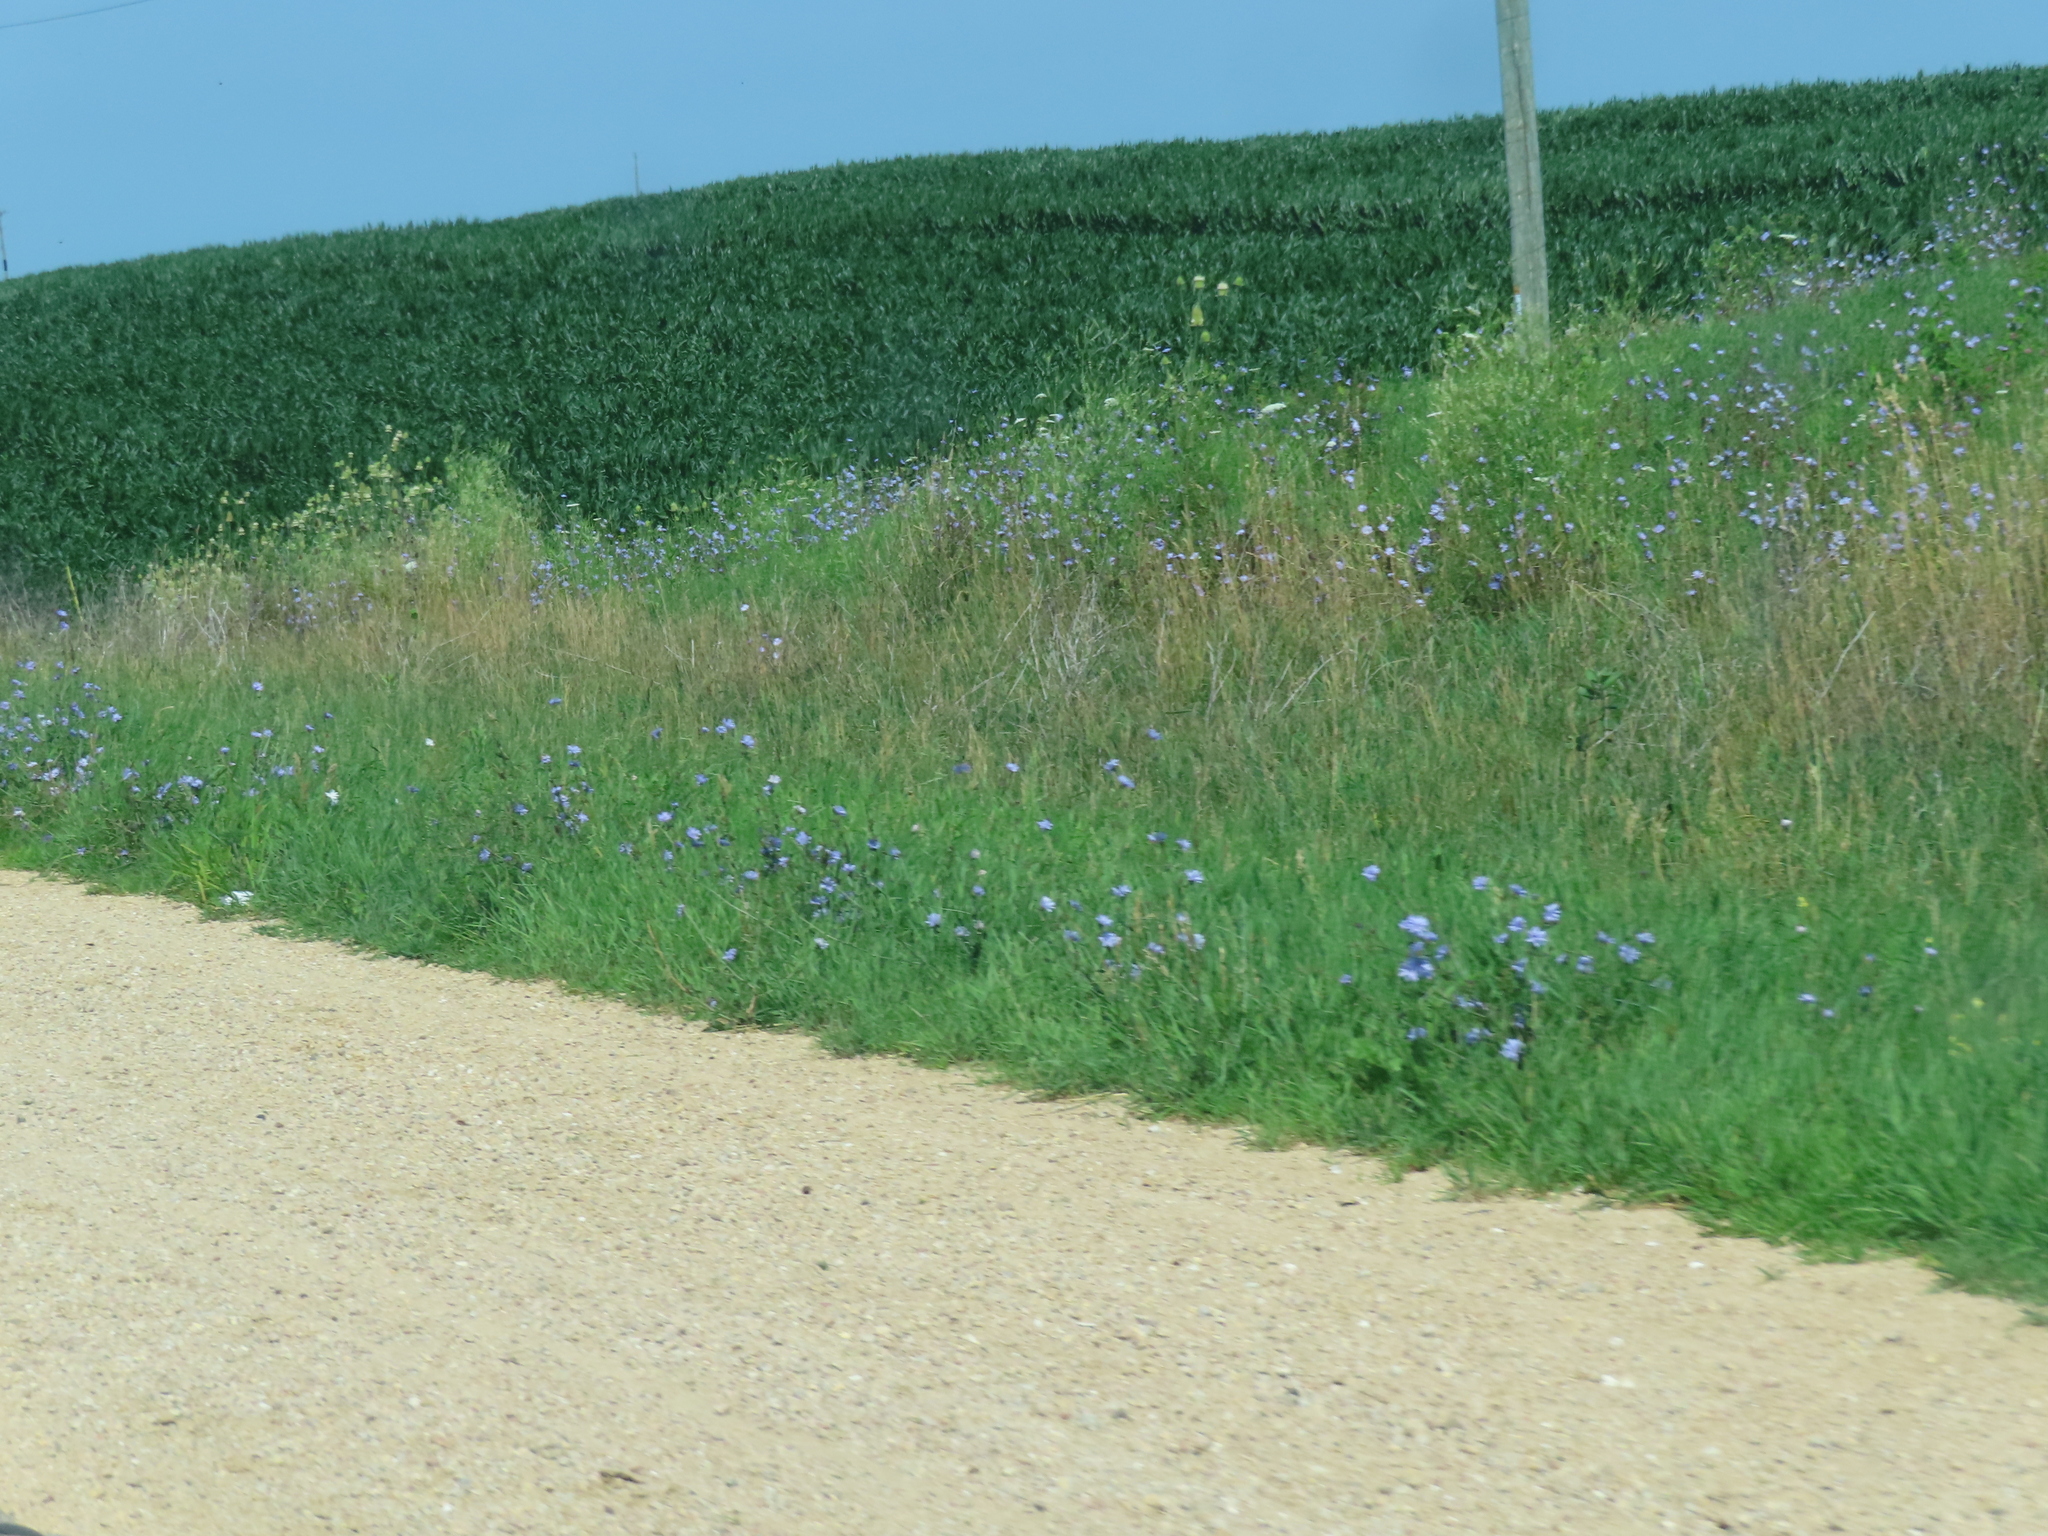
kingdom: Plantae
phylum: Tracheophyta
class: Magnoliopsida
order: Asterales
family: Asteraceae
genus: Cichorium
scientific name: Cichorium intybus
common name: Chicory
